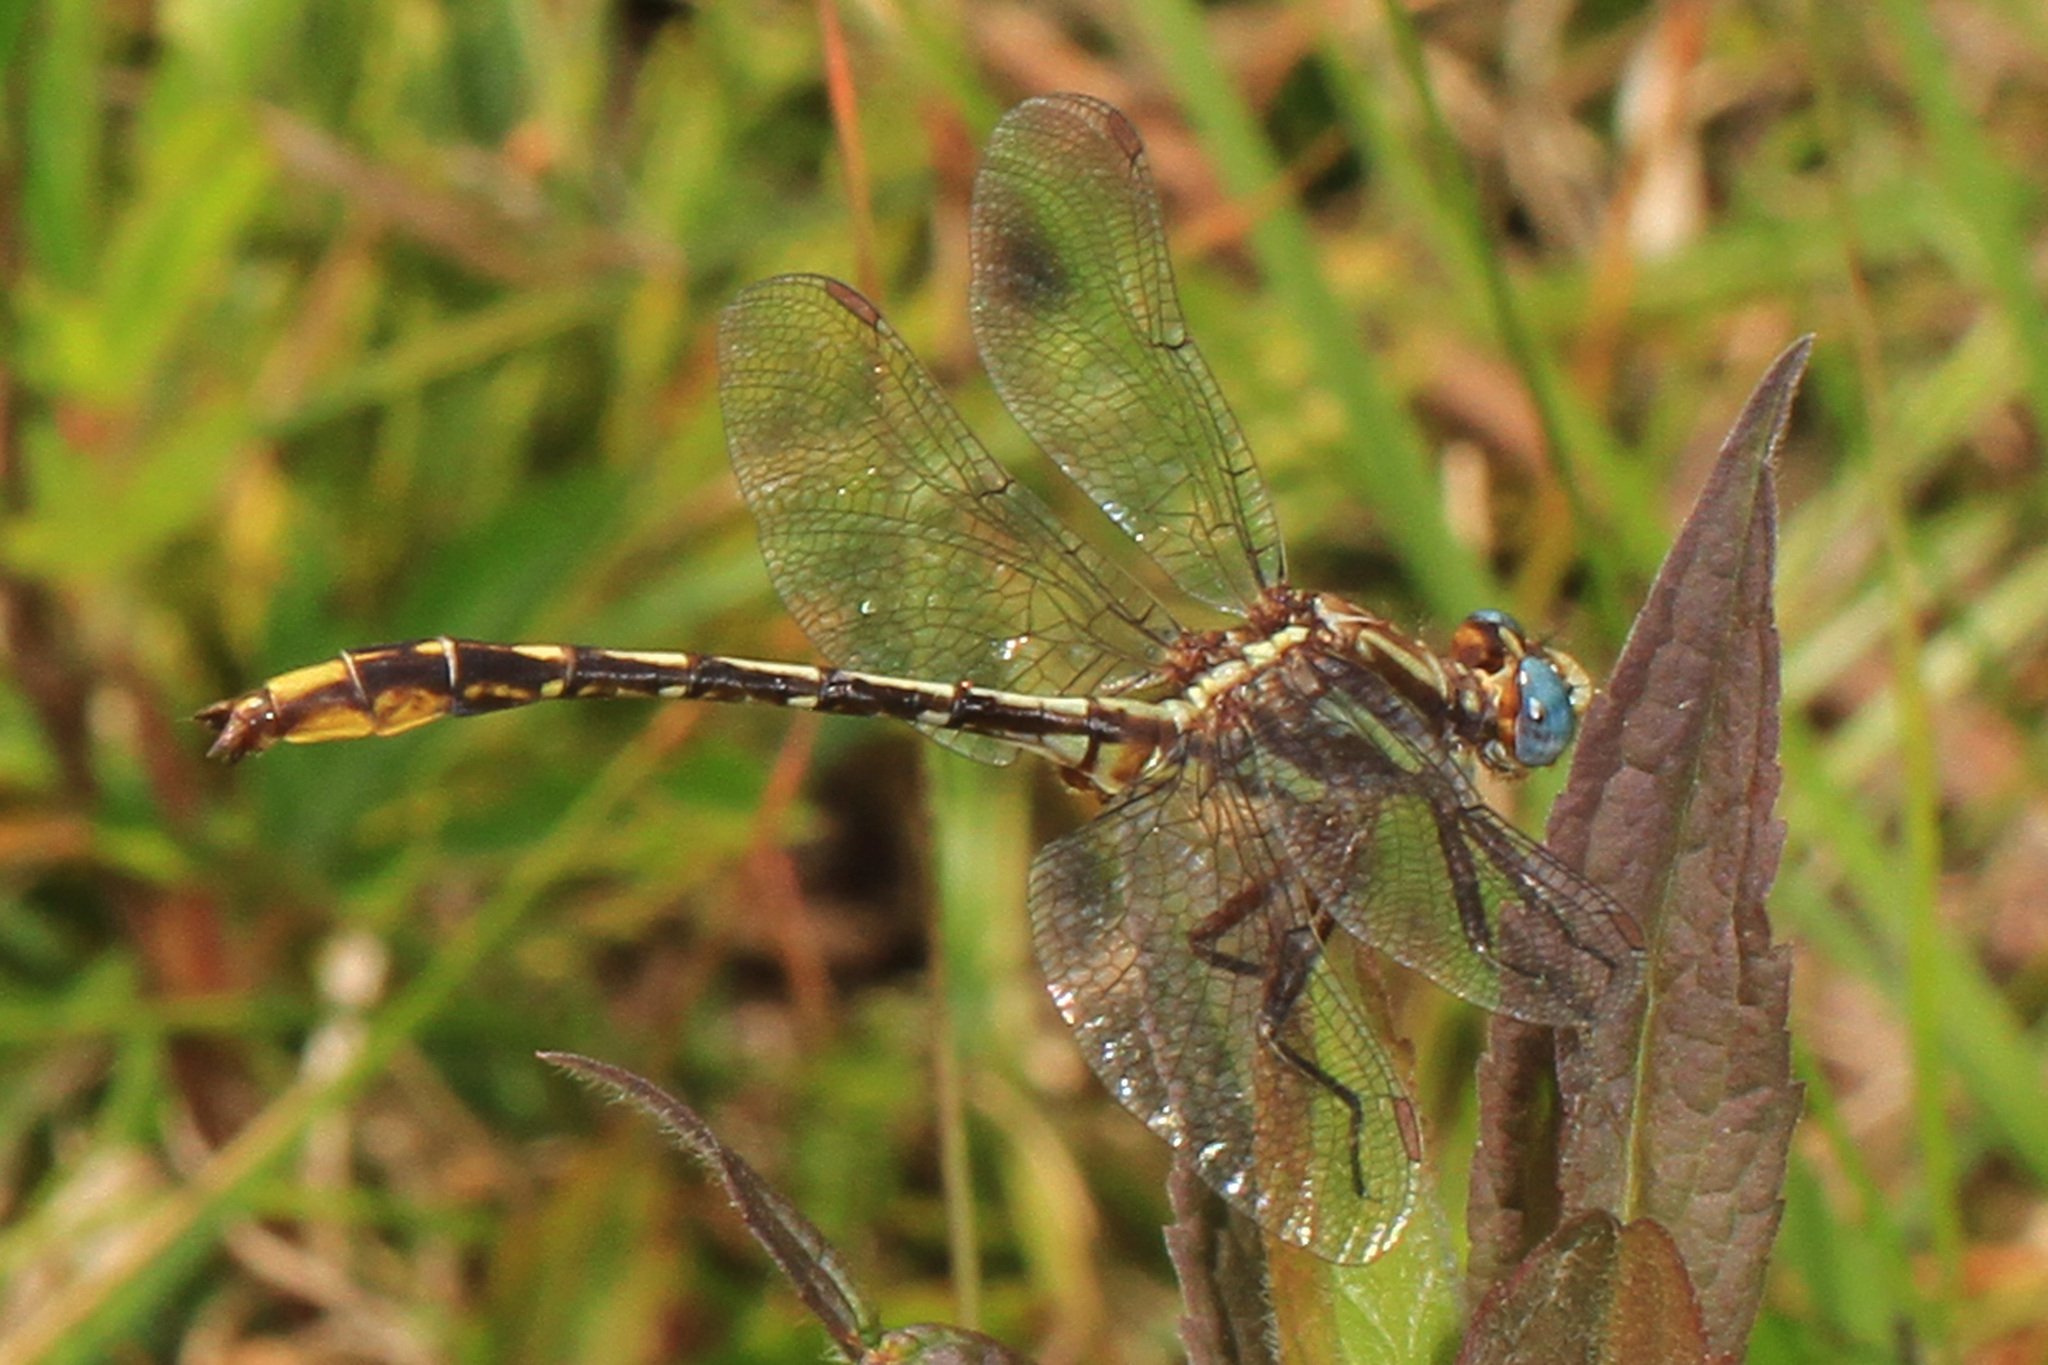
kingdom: Animalia
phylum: Arthropoda
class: Insecta
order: Odonata
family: Gomphidae
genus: Phanogomphus
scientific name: Phanogomphus exilis
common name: Lancet clubtail
